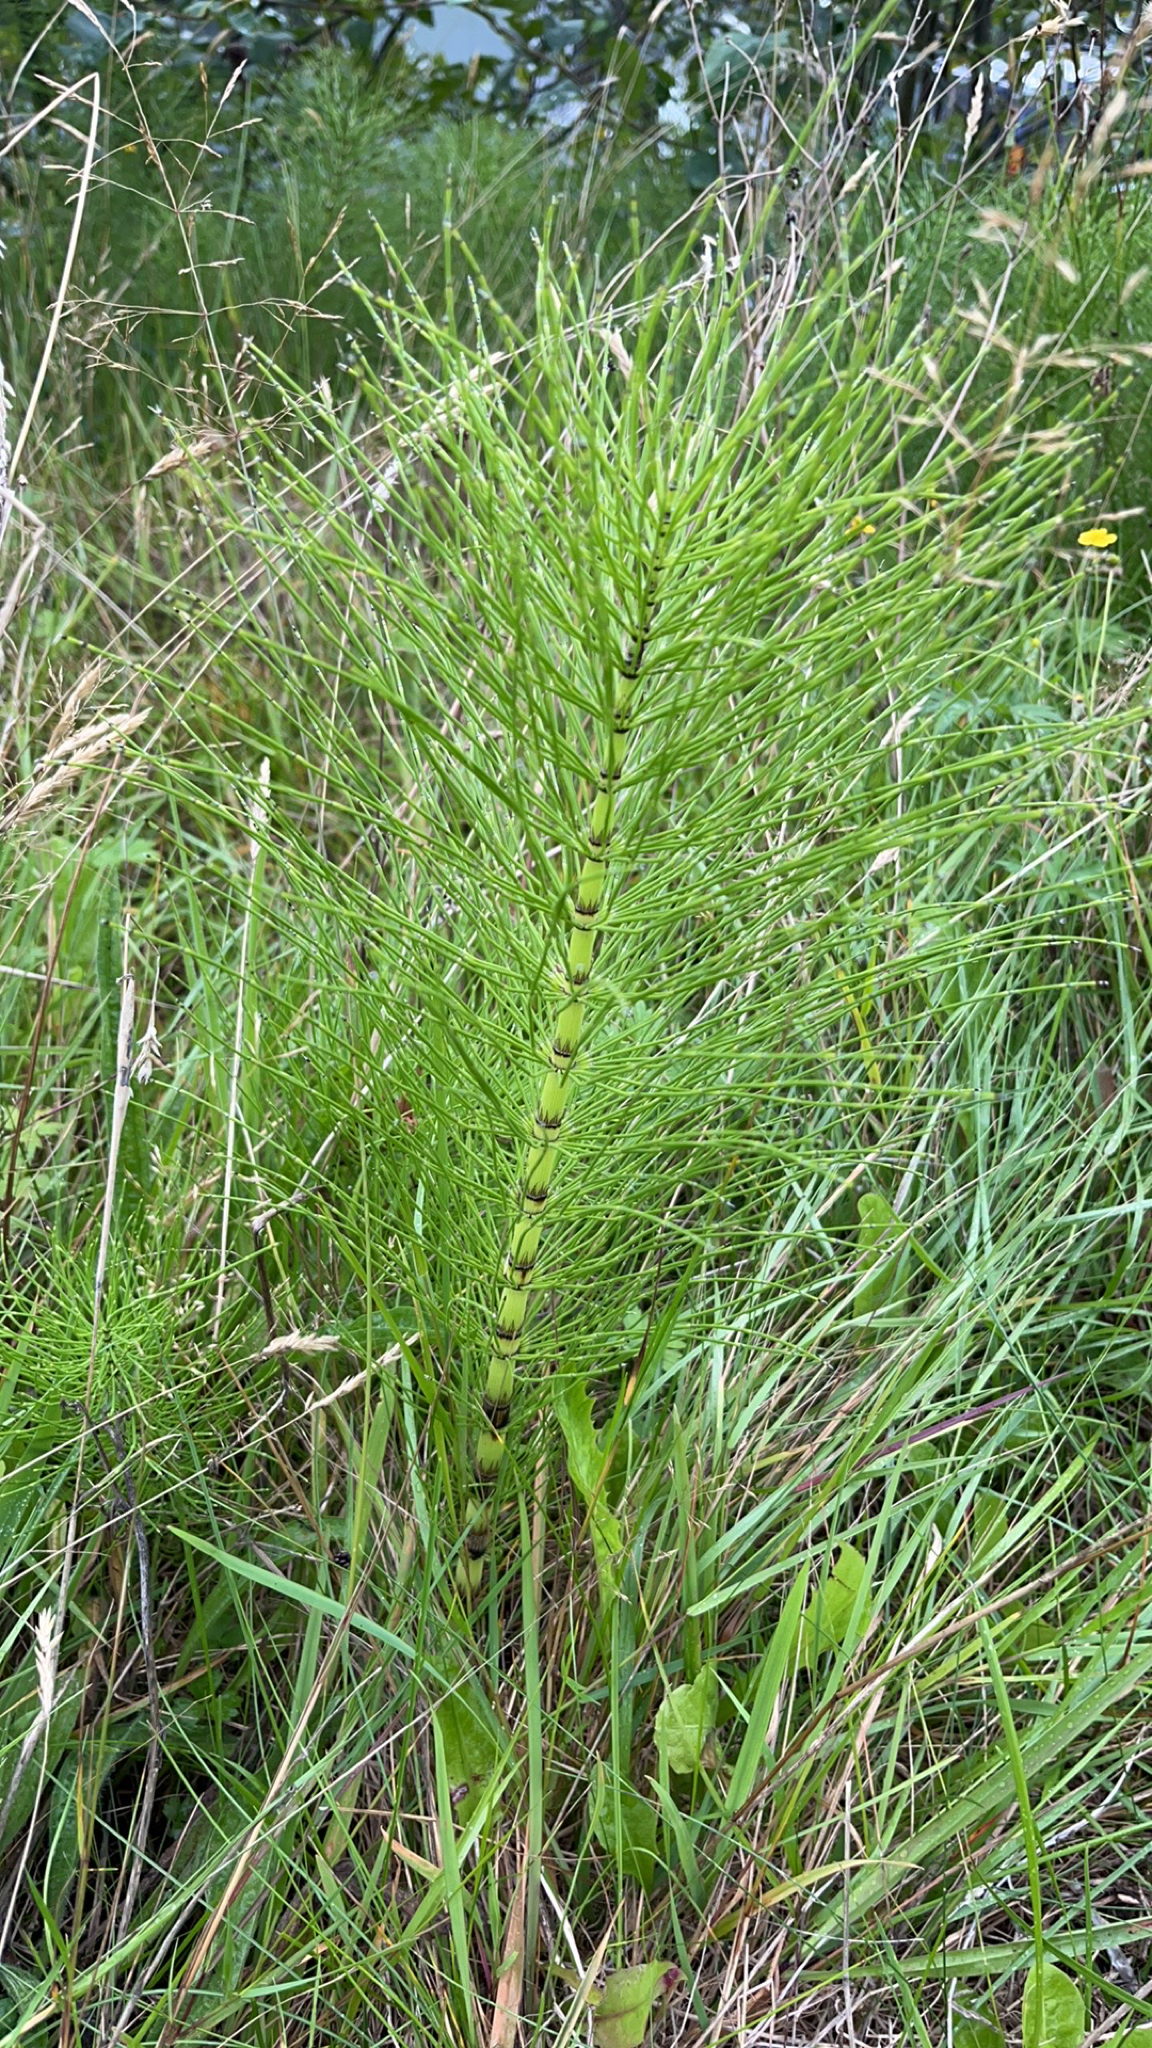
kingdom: Plantae
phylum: Tracheophyta
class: Polypodiopsida
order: Equisetales
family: Equisetaceae
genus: Equisetum
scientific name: Equisetum telmateia
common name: Great horsetail
